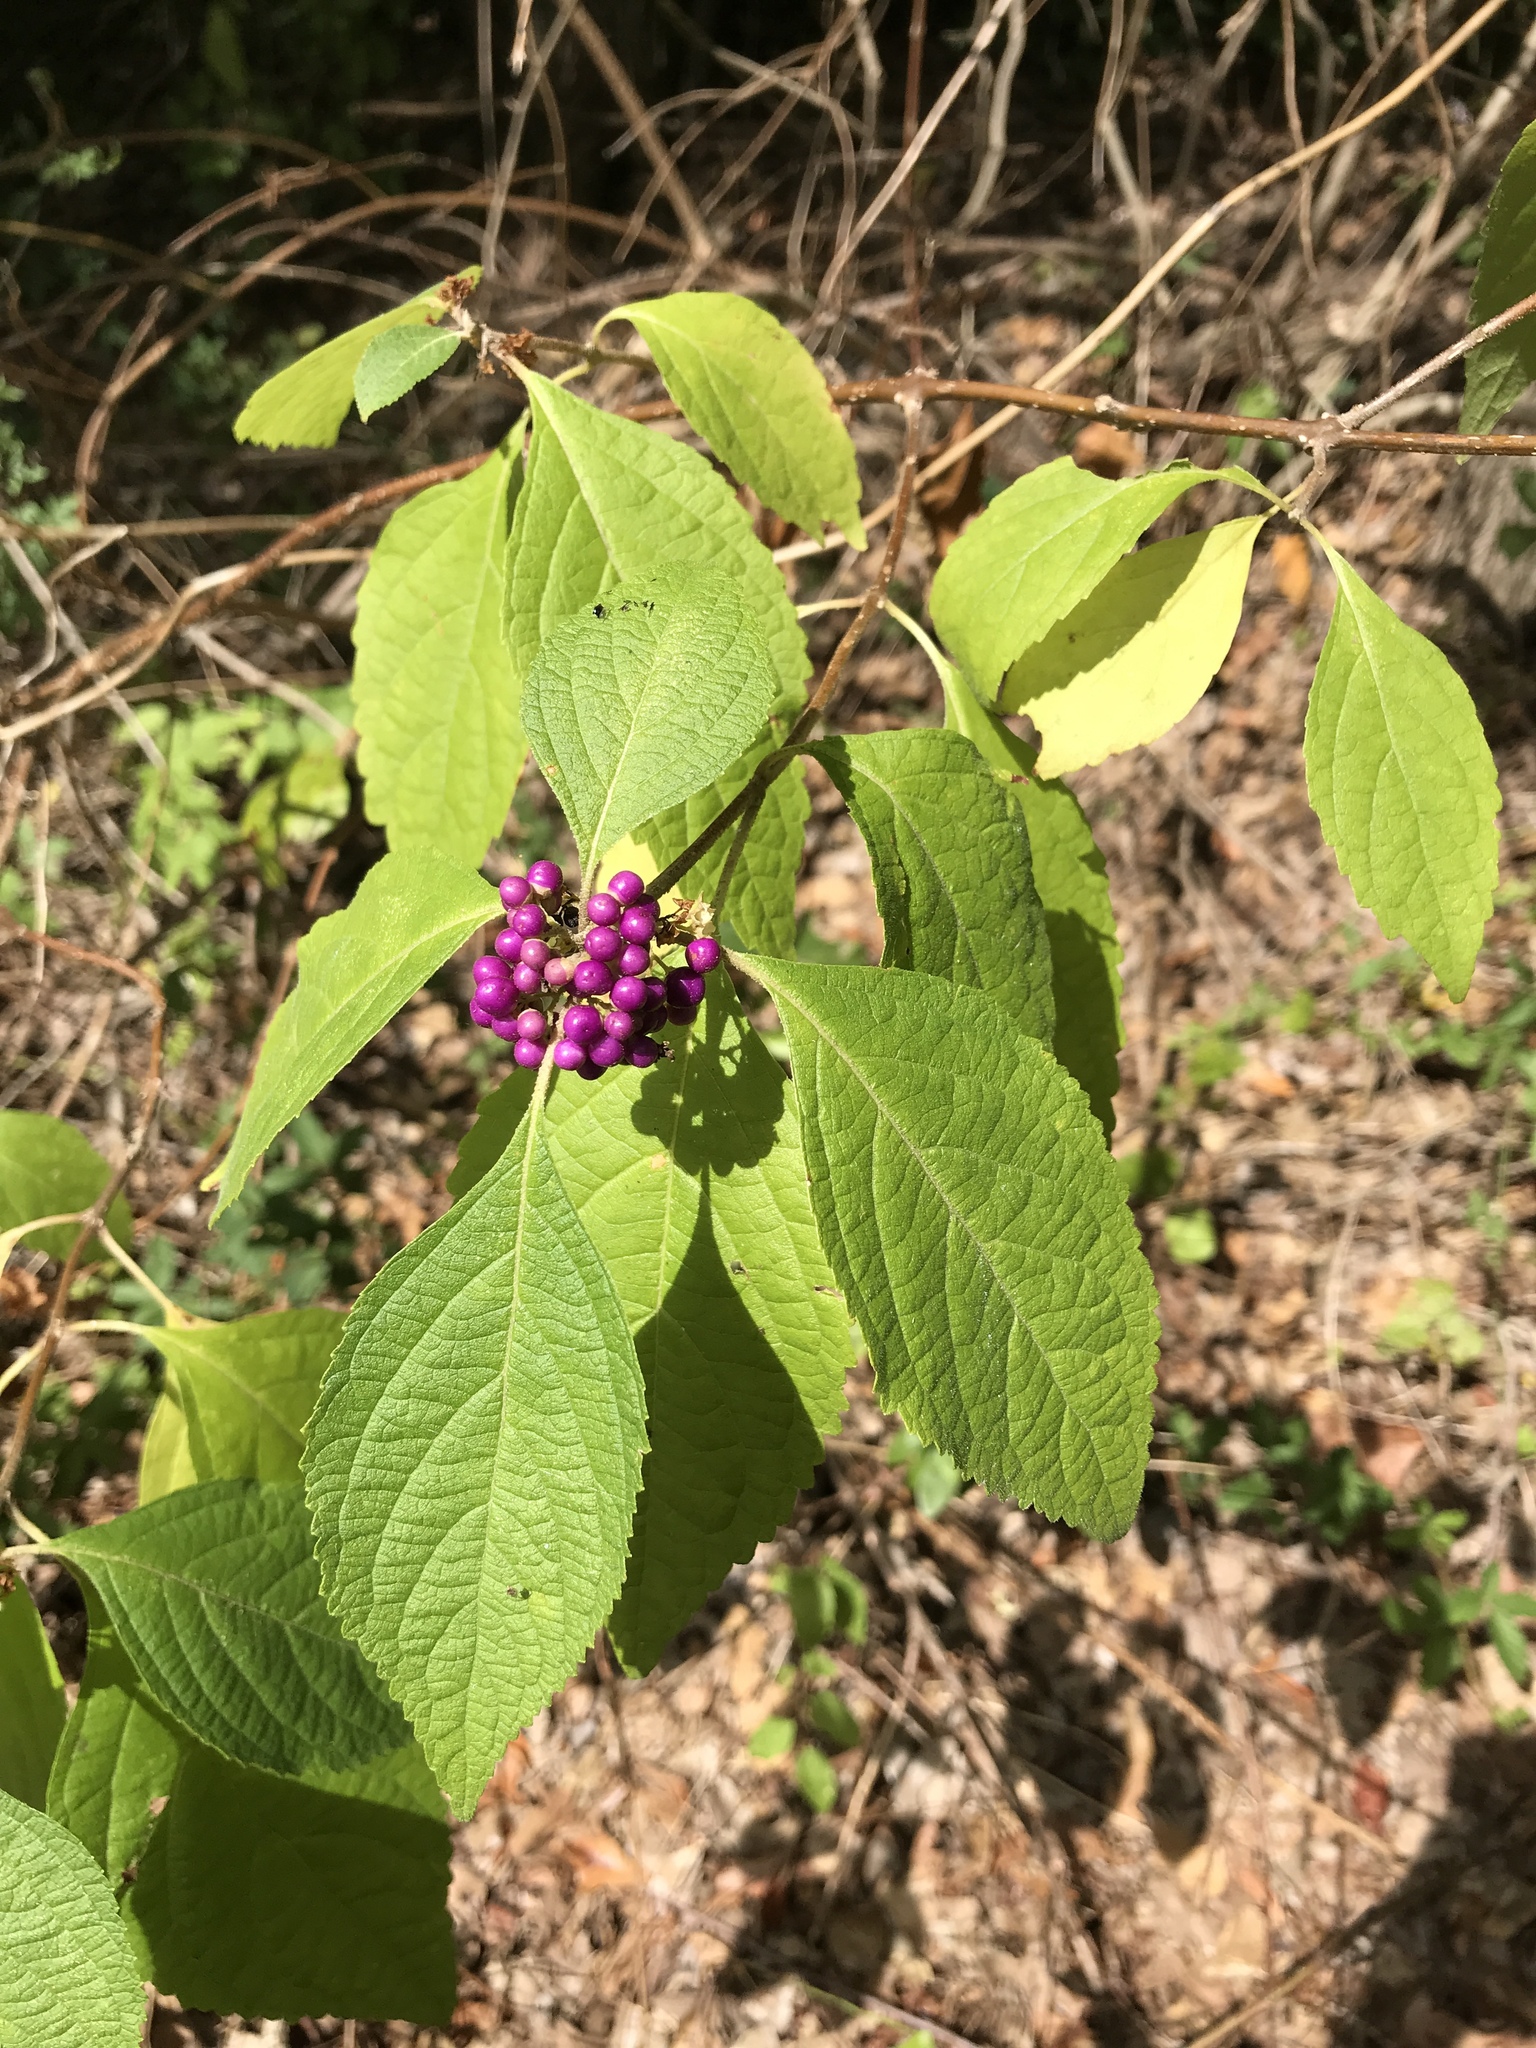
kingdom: Plantae
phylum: Tracheophyta
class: Magnoliopsida
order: Lamiales
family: Lamiaceae
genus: Callicarpa
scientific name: Callicarpa americana
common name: American beautyberry
